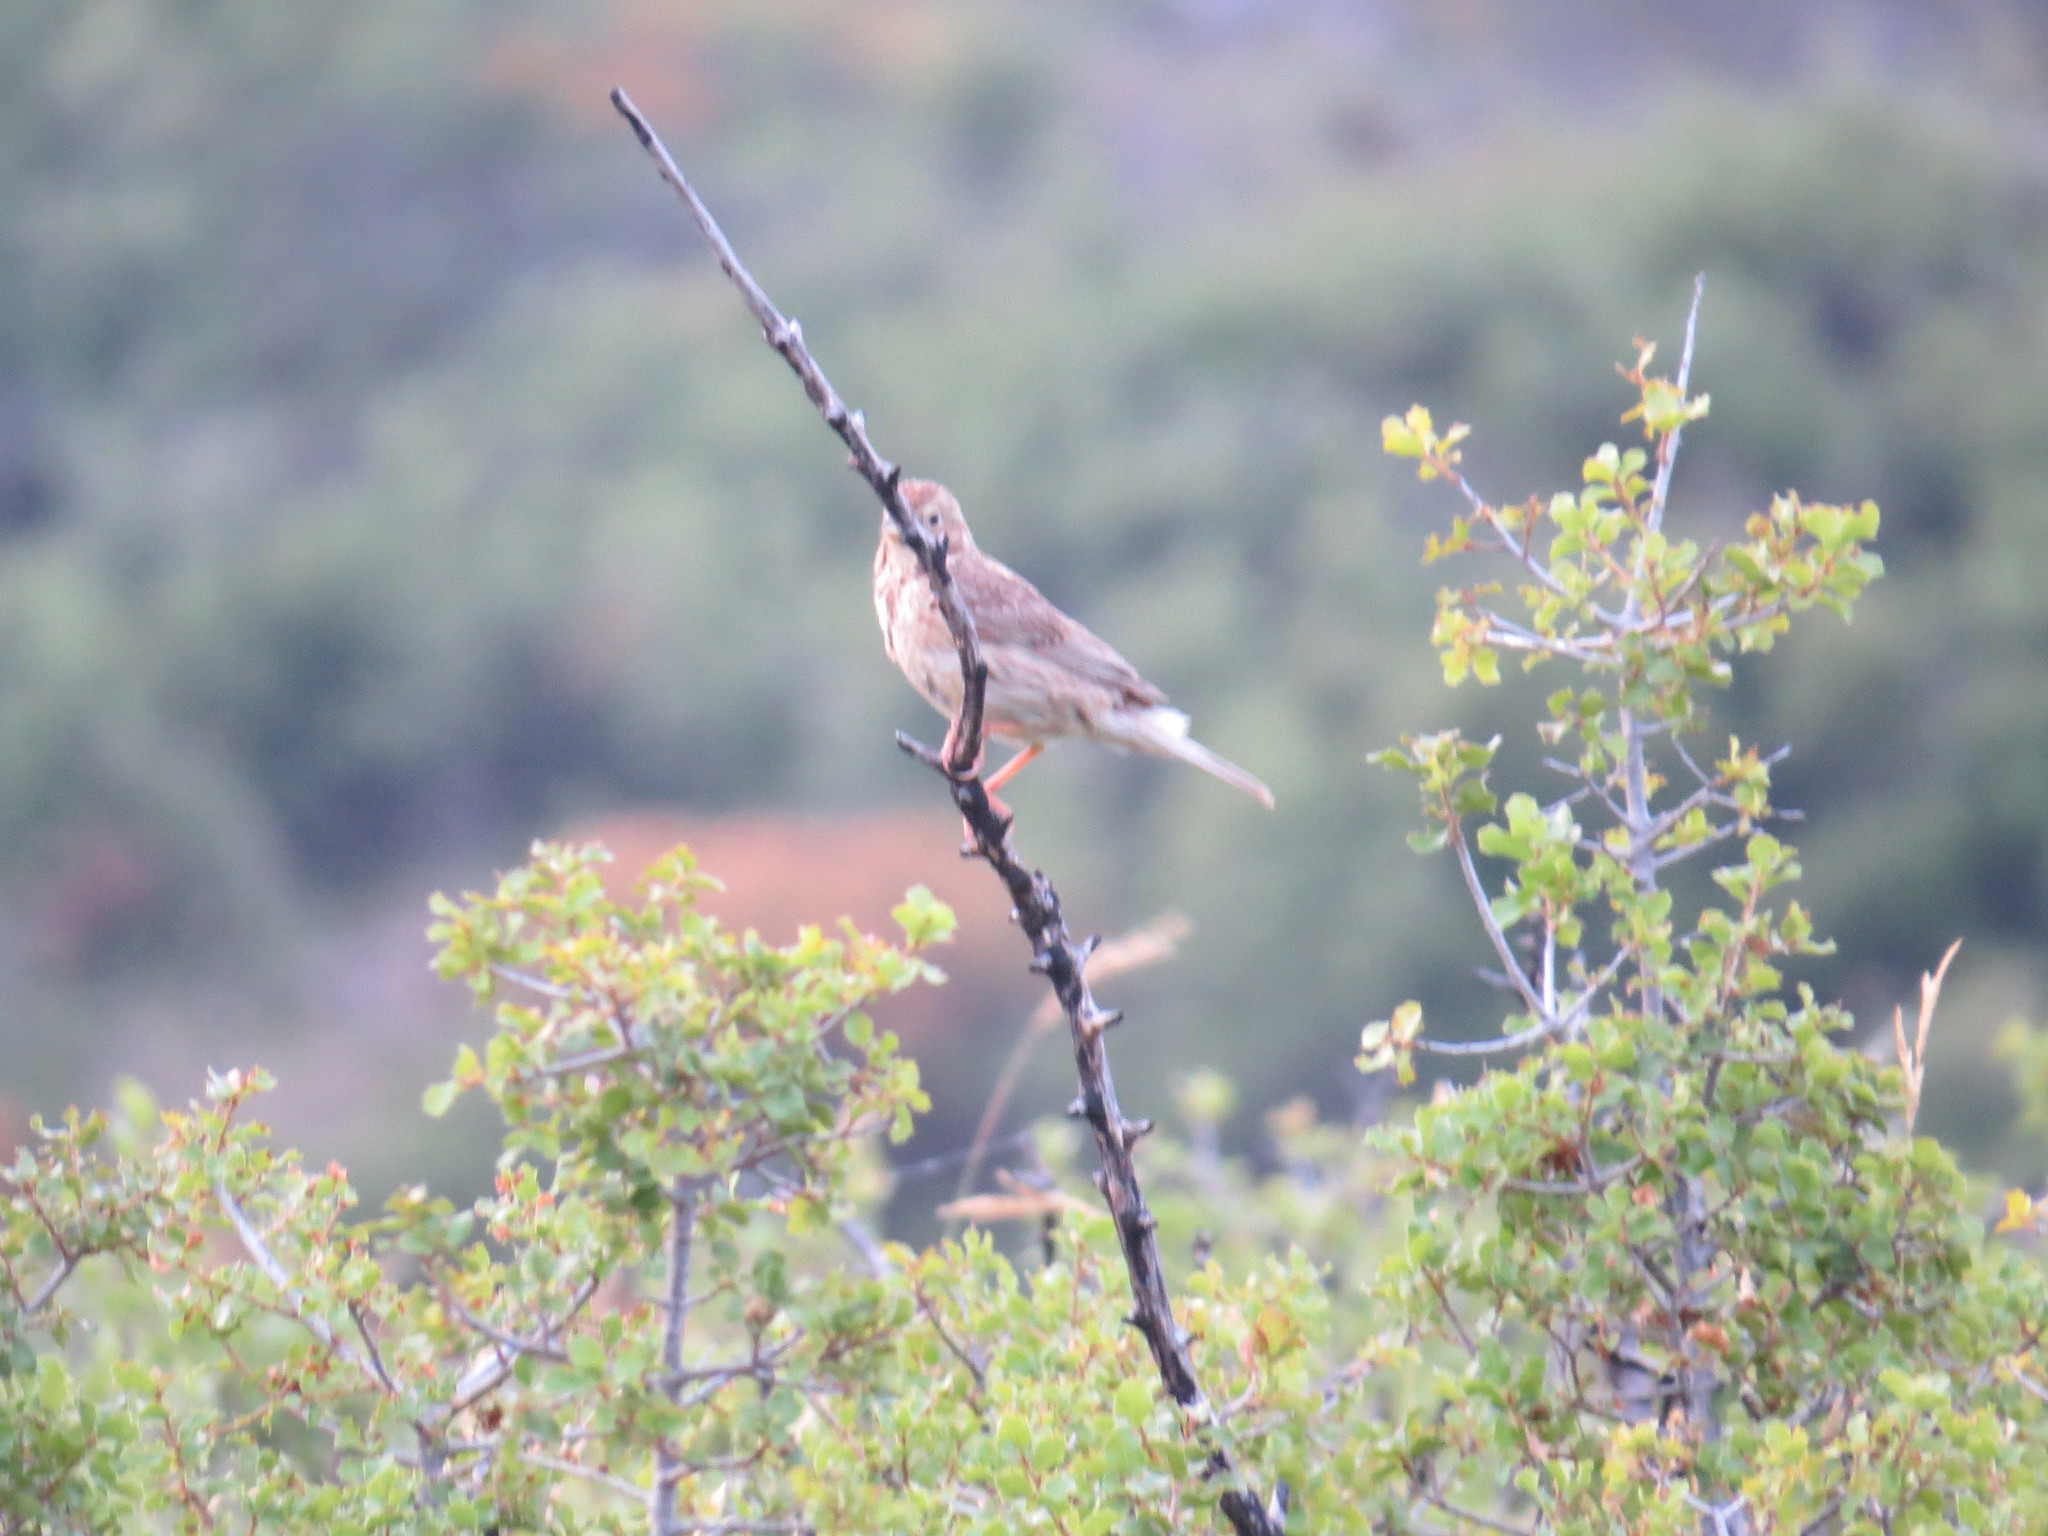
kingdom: Animalia
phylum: Chordata
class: Aves
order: Passeriformes
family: Emberizidae
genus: Emberiza
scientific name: Emberiza calandra
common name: Corn bunting
